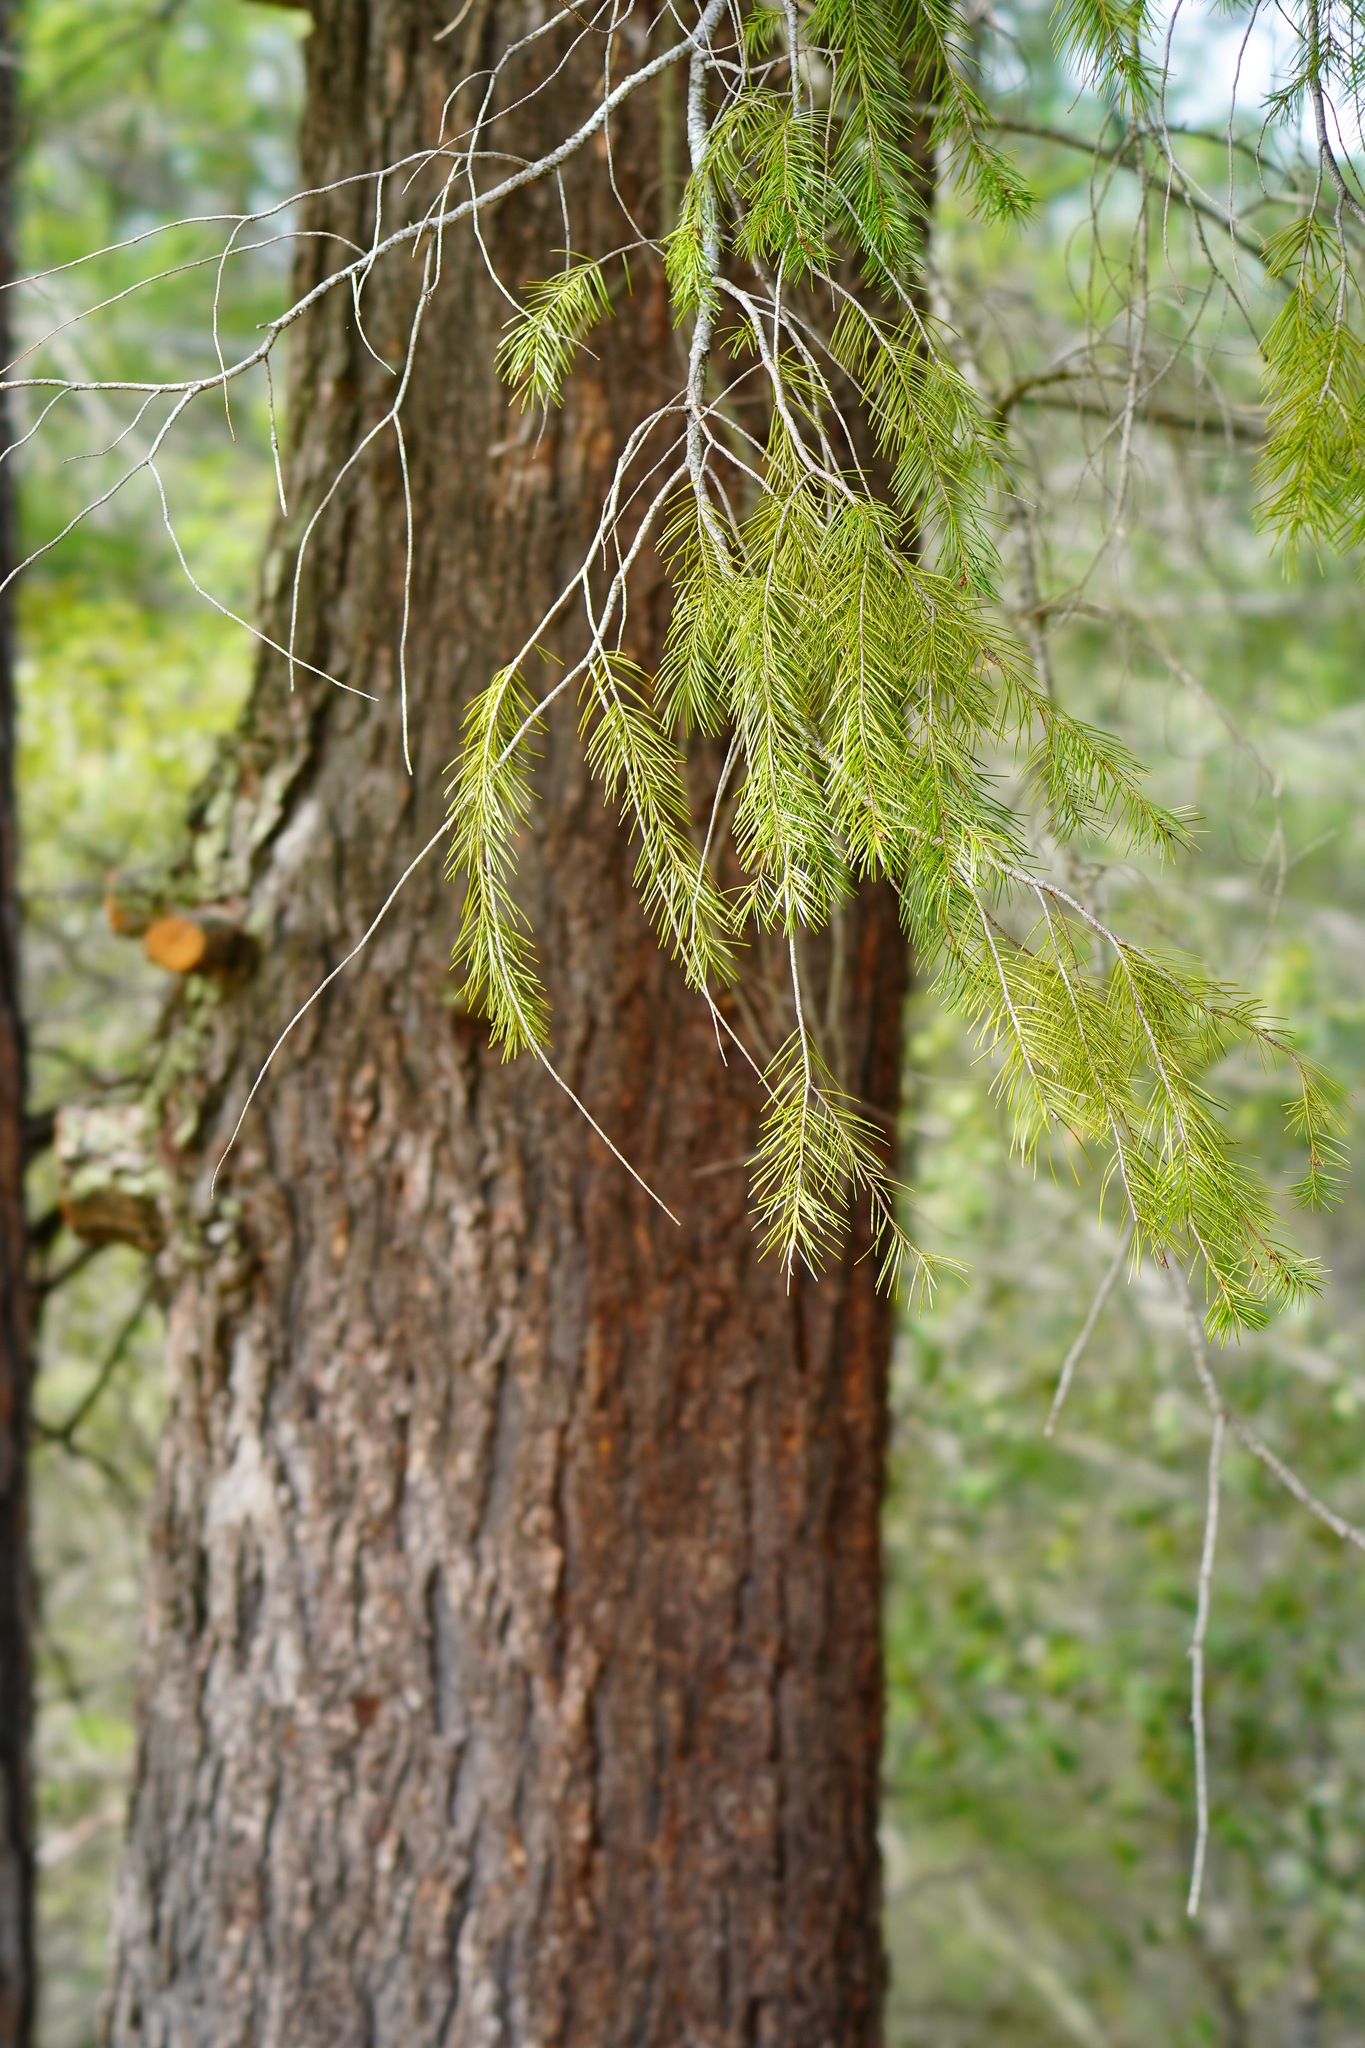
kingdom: Plantae
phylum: Tracheophyta
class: Pinopsida
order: Pinales
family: Pinaceae
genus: Pseudotsuga
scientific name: Pseudotsuga menziesii
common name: Douglas fir
